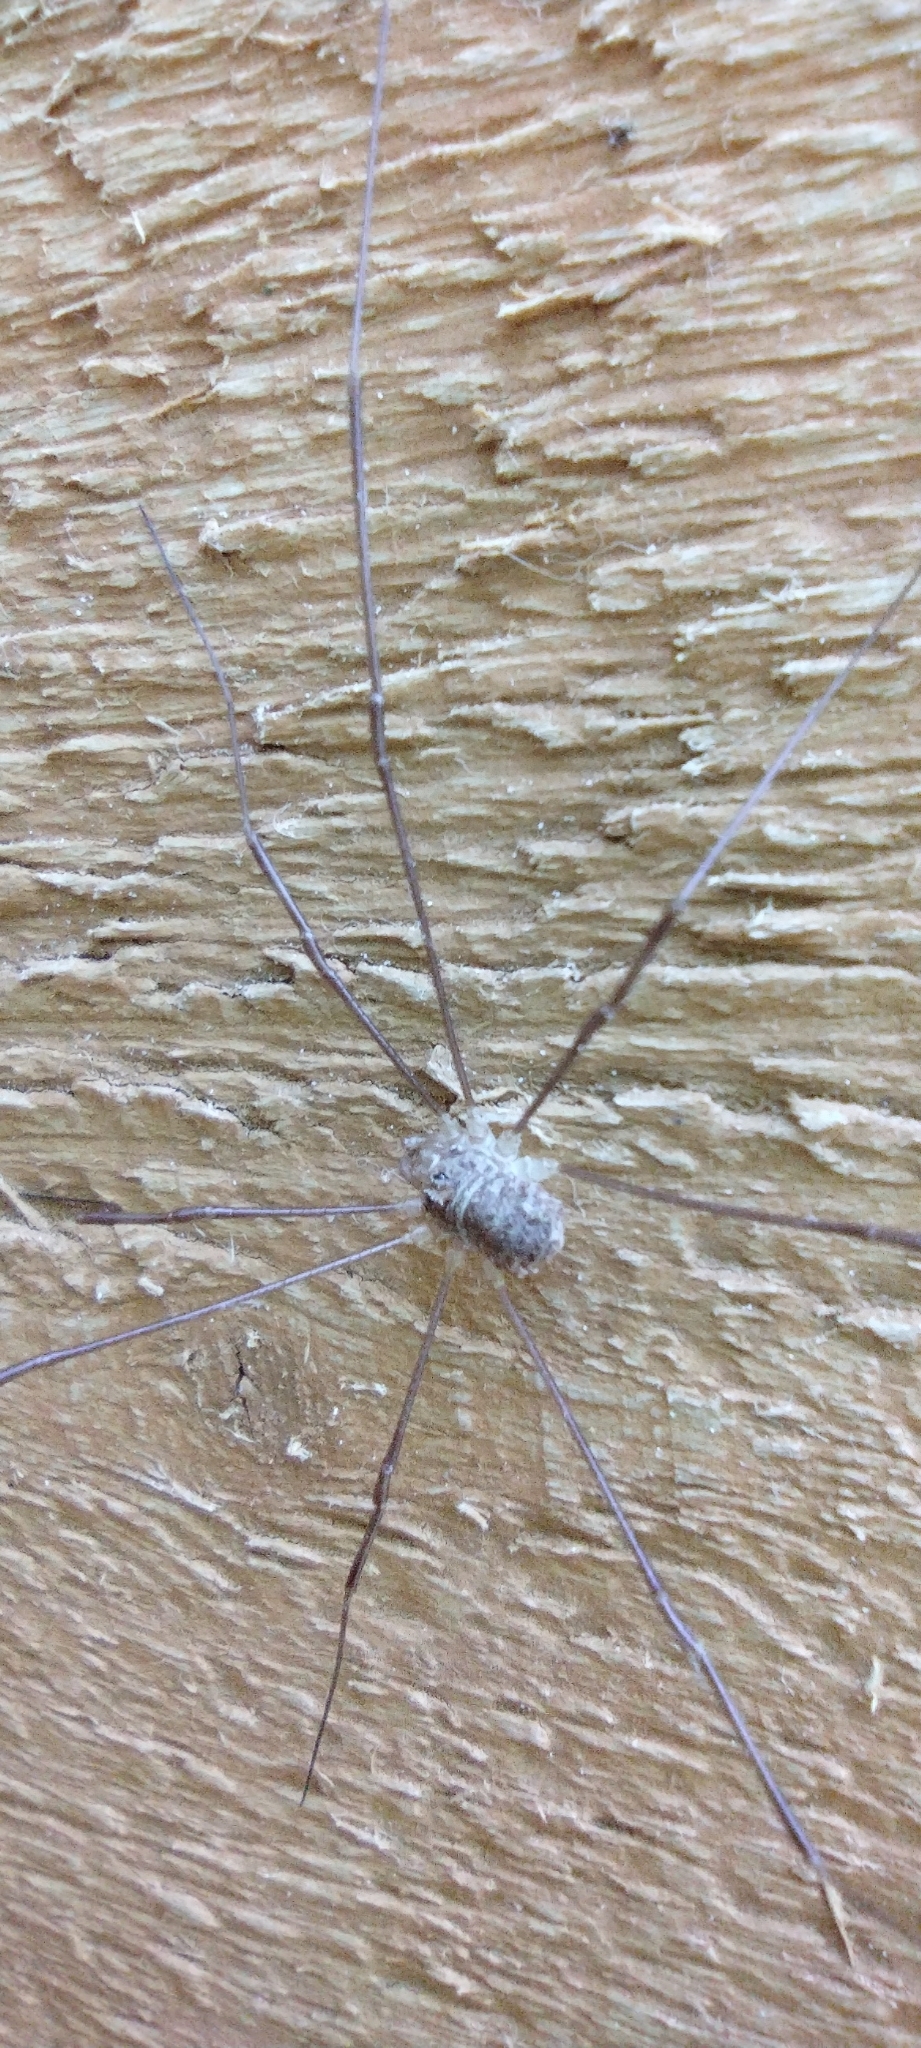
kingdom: Animalia
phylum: Arthropoda
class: Arachnida
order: Opiliones
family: Phalangiidae
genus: Rilaena
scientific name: Rilaena triangularis
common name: Spring harvestman
